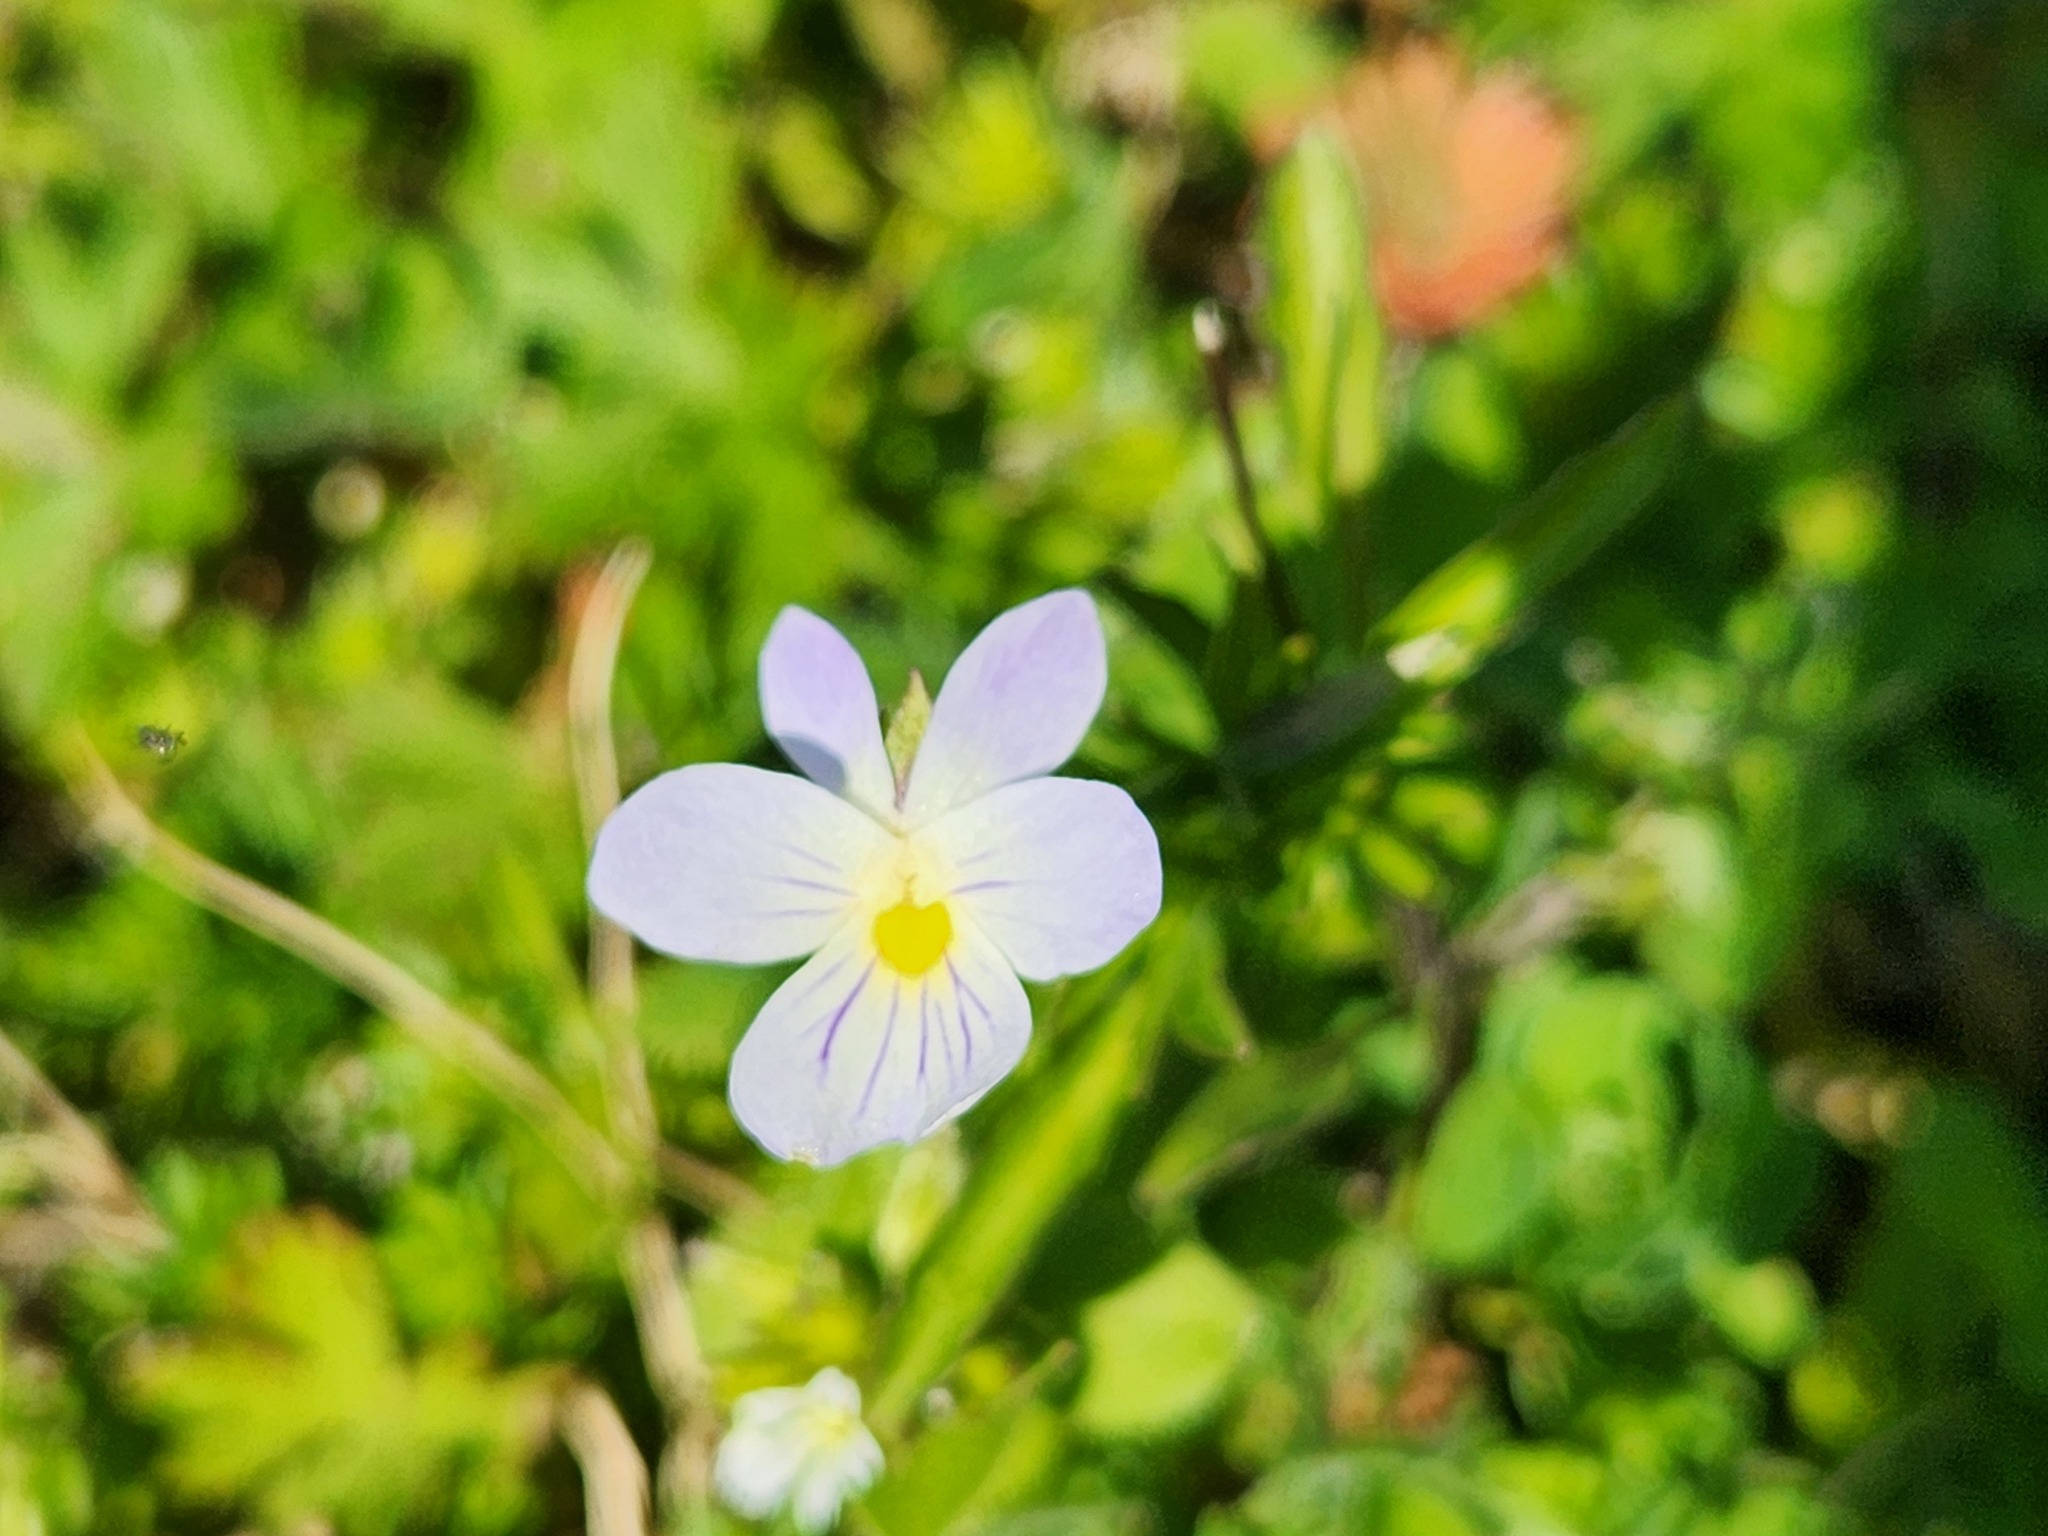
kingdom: Plantae
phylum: Tracheophyta
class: Magnoliopsida
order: Malpighiales
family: Violaceae
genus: Viola
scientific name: Viola rafinesquei
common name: American field pansy
